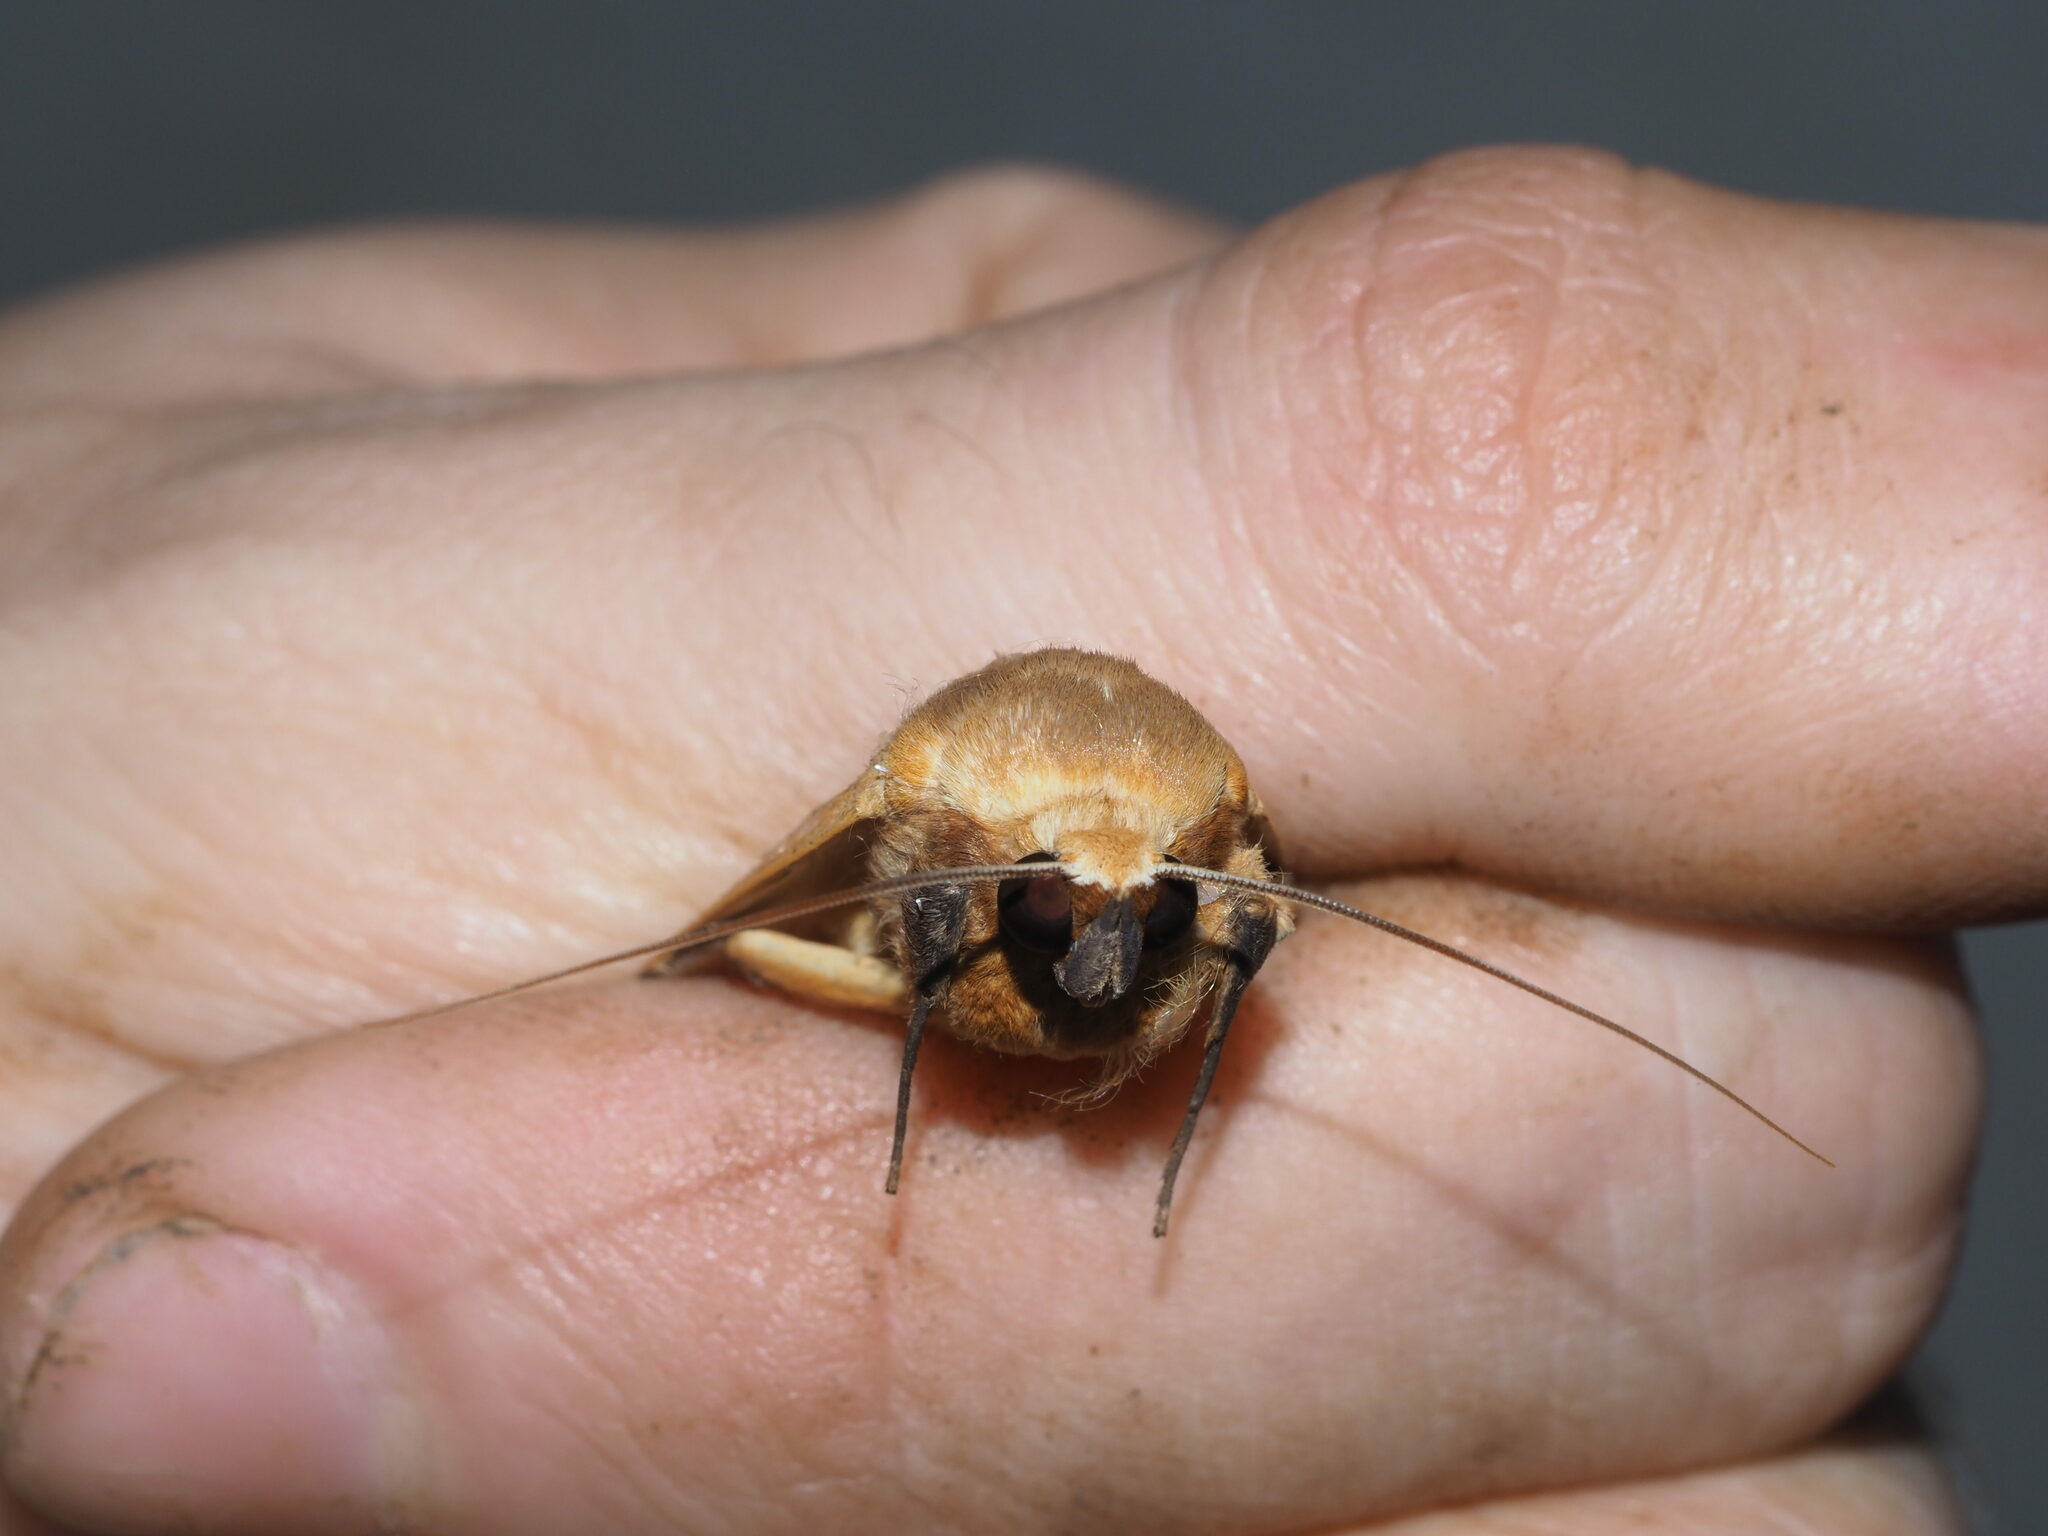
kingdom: Animalia
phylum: Arthropoda
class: Insecta
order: Lepidoptera
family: Erebidae
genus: Ophiusa
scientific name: Ophiusa disjungens
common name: Moth
